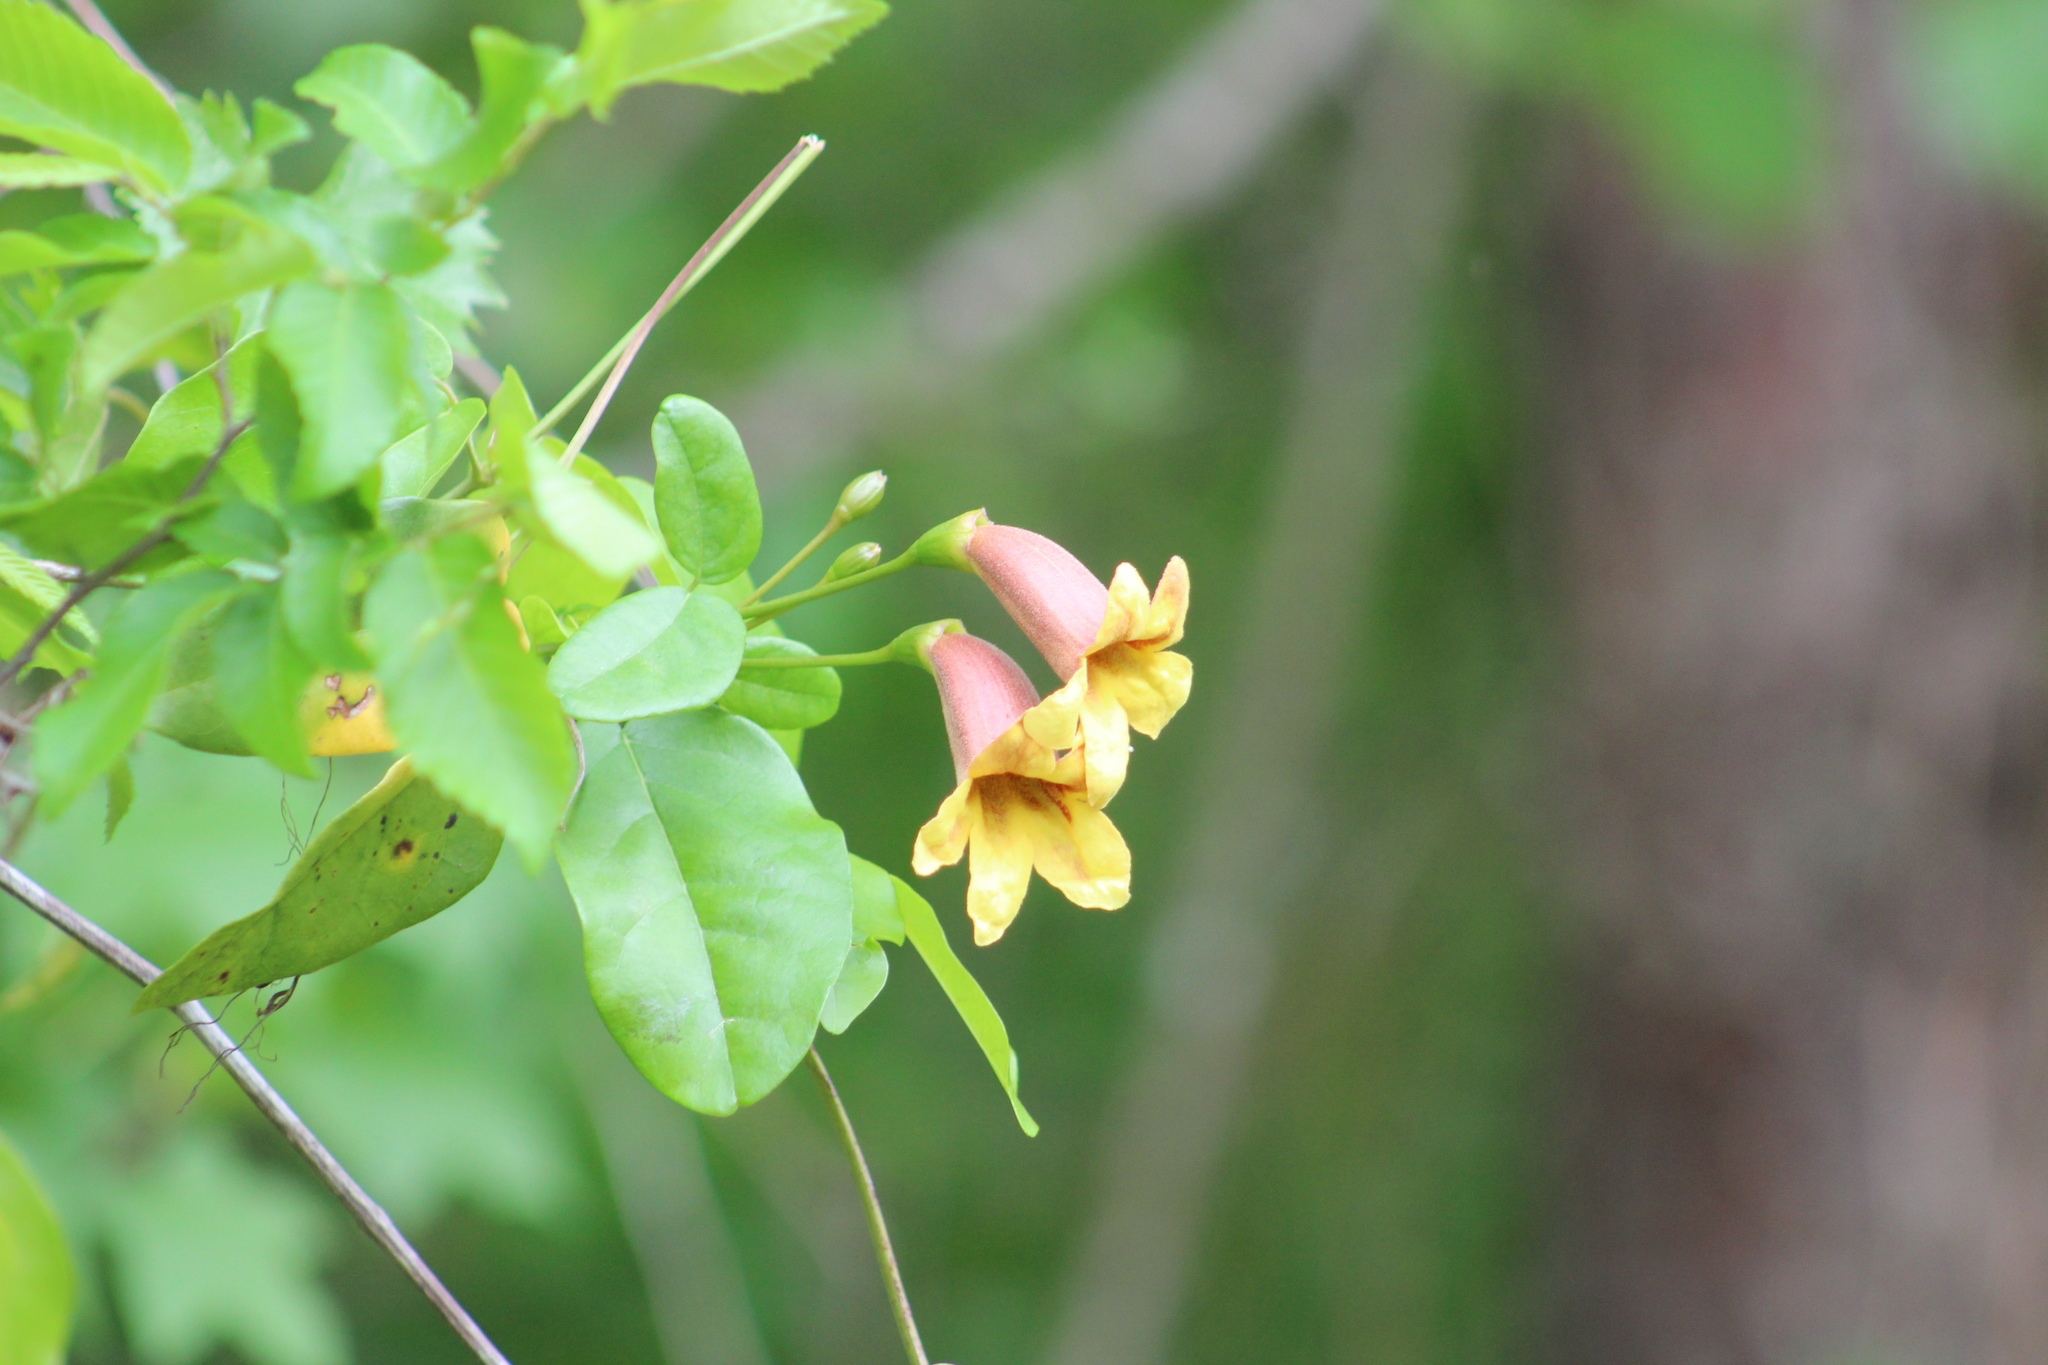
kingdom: Plantae
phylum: Tracheophyta
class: Magnoliopsida
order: Lamiales
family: Bignoniaceae
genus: Bignonia
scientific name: Bignonia capreolata
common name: Crossvine
